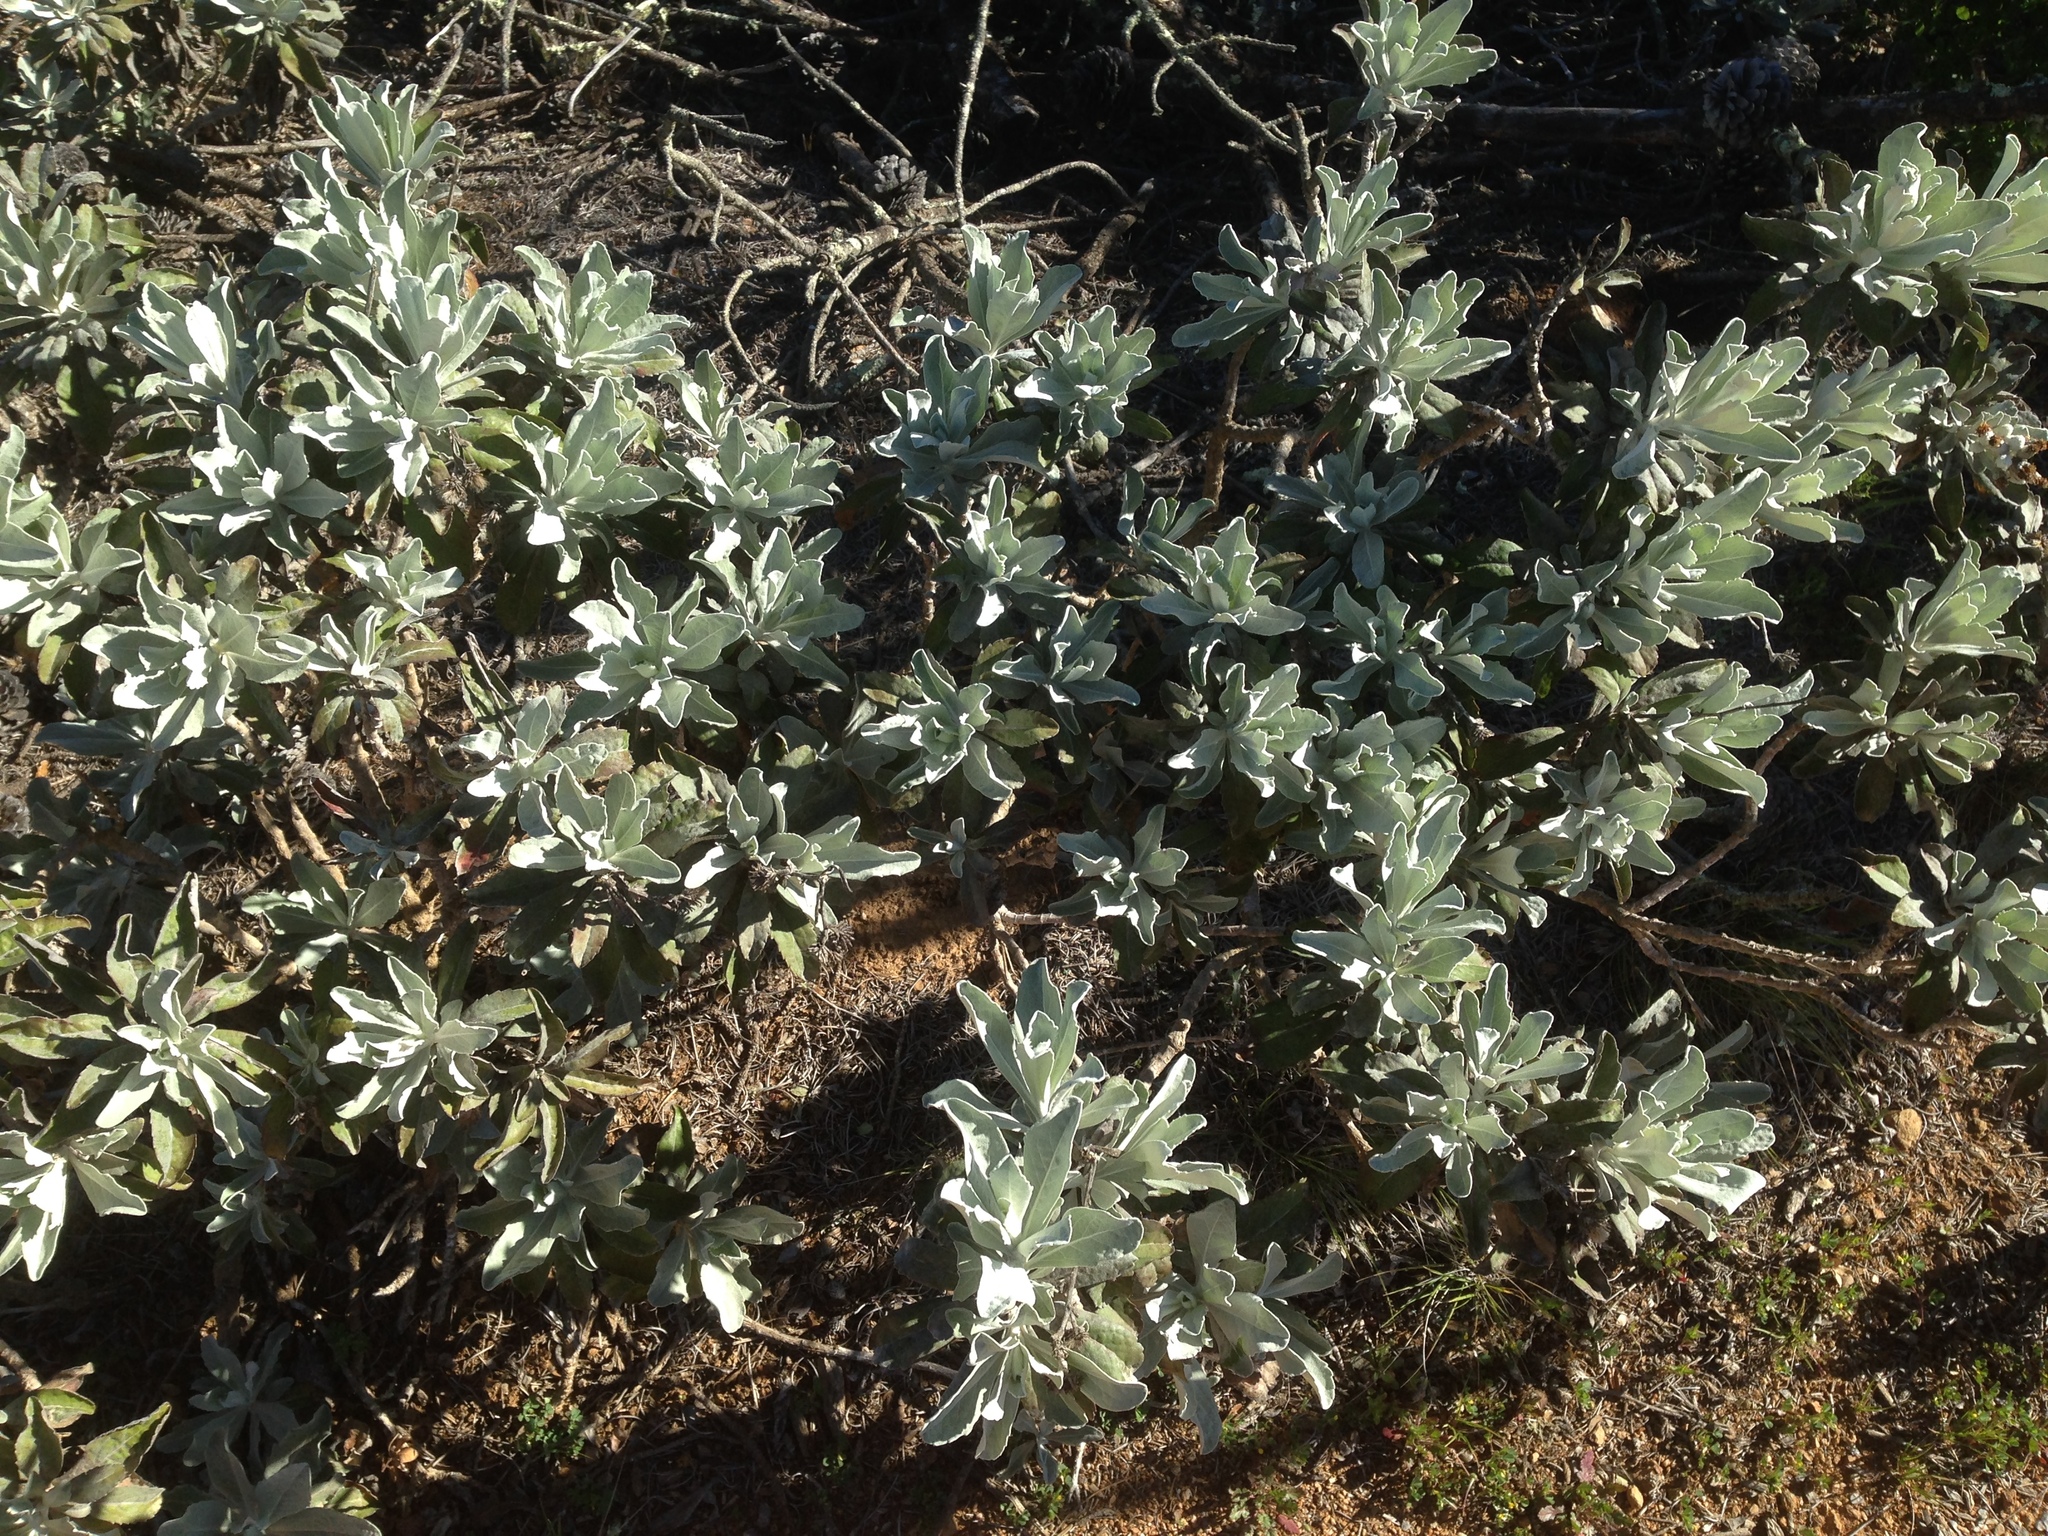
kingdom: Plantae
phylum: Tracheophyta
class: Magnoliopsida
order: Asterales
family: Asteraceae
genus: Hazardia
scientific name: Hazardia detonsa
